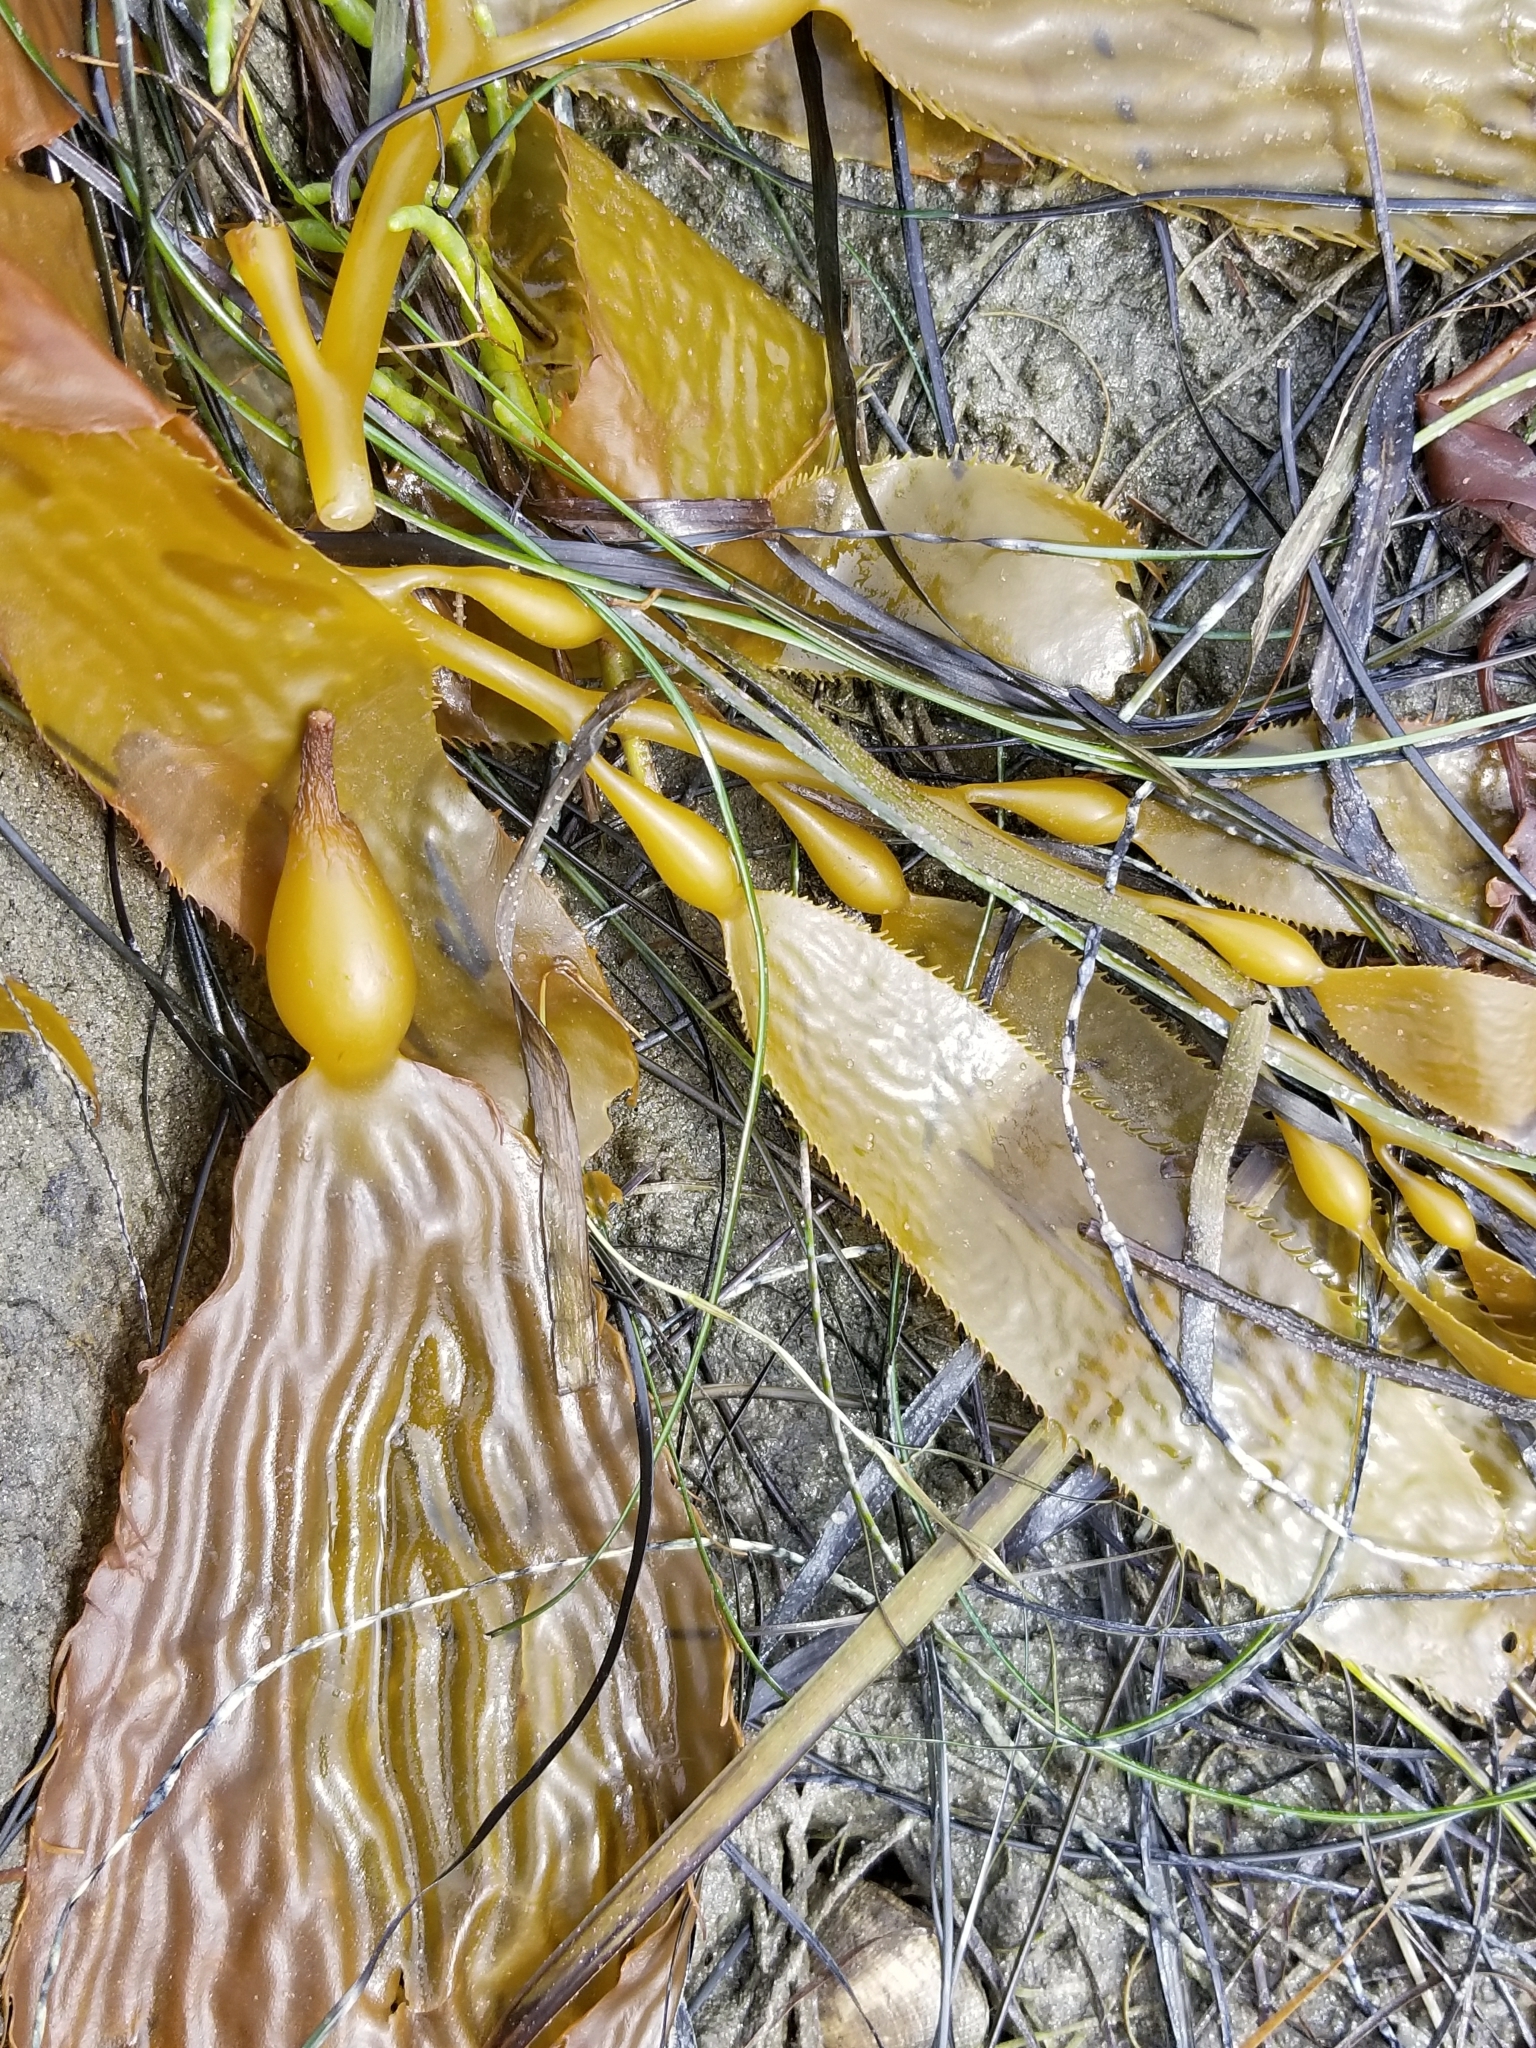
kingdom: Chromista
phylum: Ochrophyta
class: Phaeophyceae
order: Laminariales
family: Laminariaceae
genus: Macrocystis
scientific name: Macrocystis pyrifera
